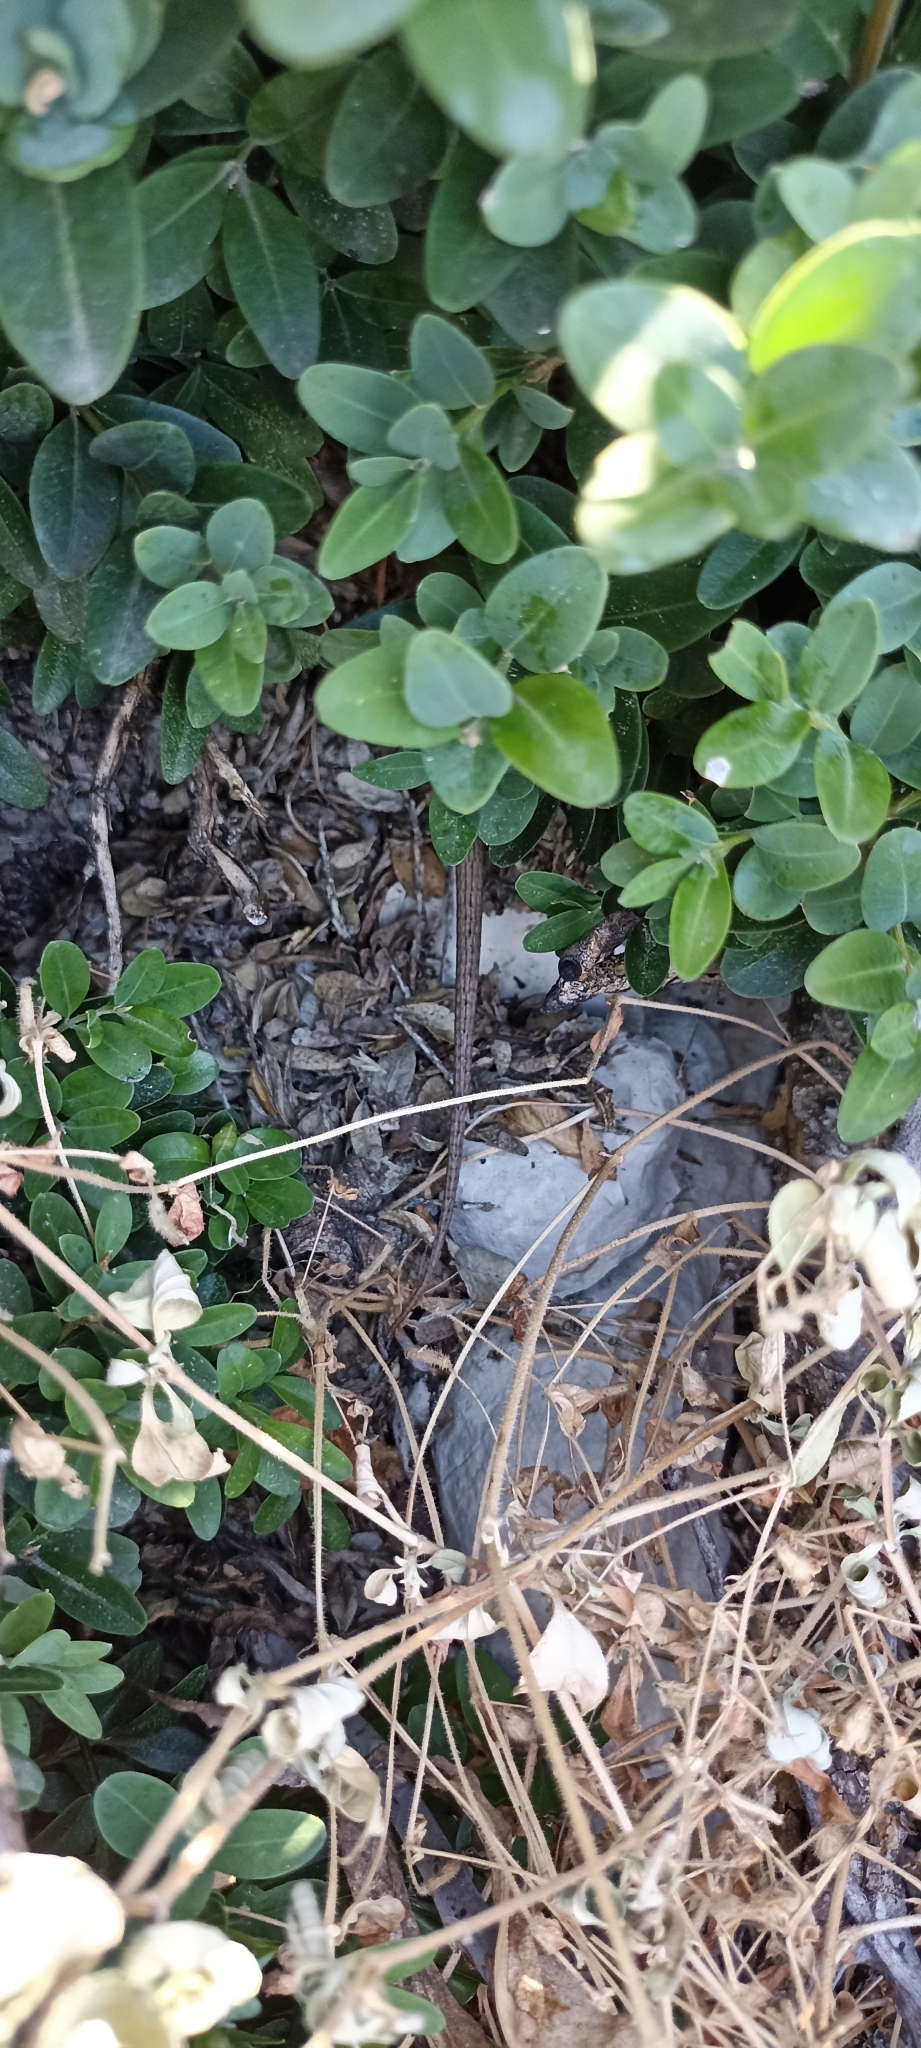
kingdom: Animalia
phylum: Chordata
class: Squamata
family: Lacertidae
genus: Lacerta
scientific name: Lacerta bilineata
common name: Western green lizard
